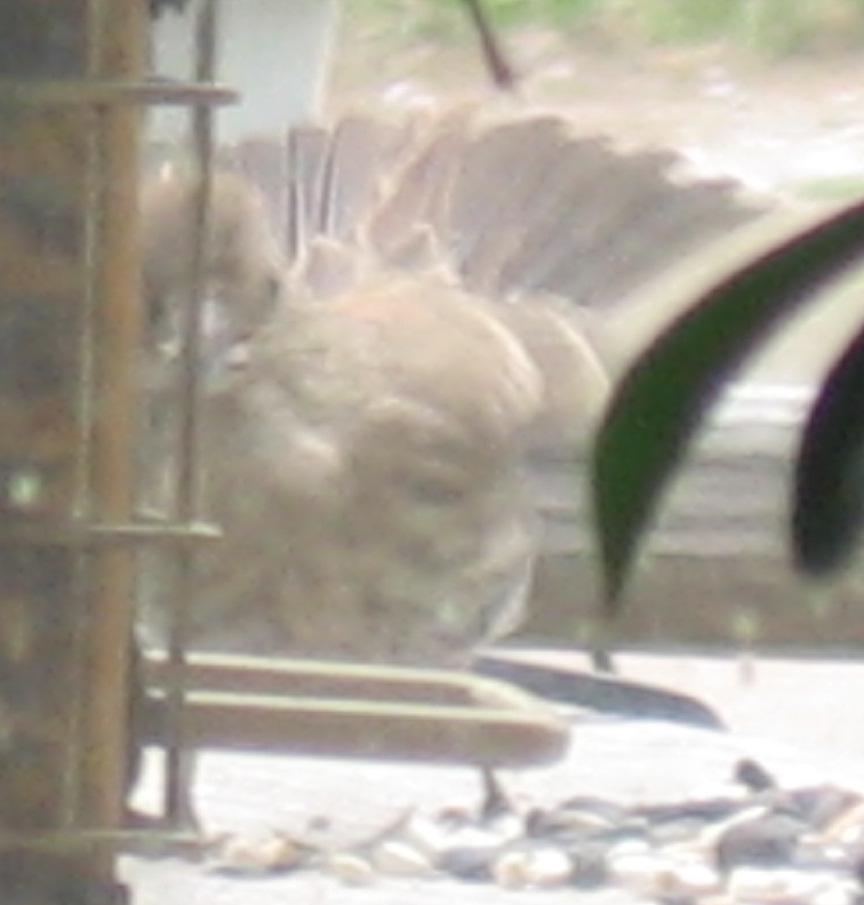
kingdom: Animalia
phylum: Chordata
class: Aves
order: Passeriformes
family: Fringillidae
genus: Haemorhous
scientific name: Haemorhous mexicanus
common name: House finch
